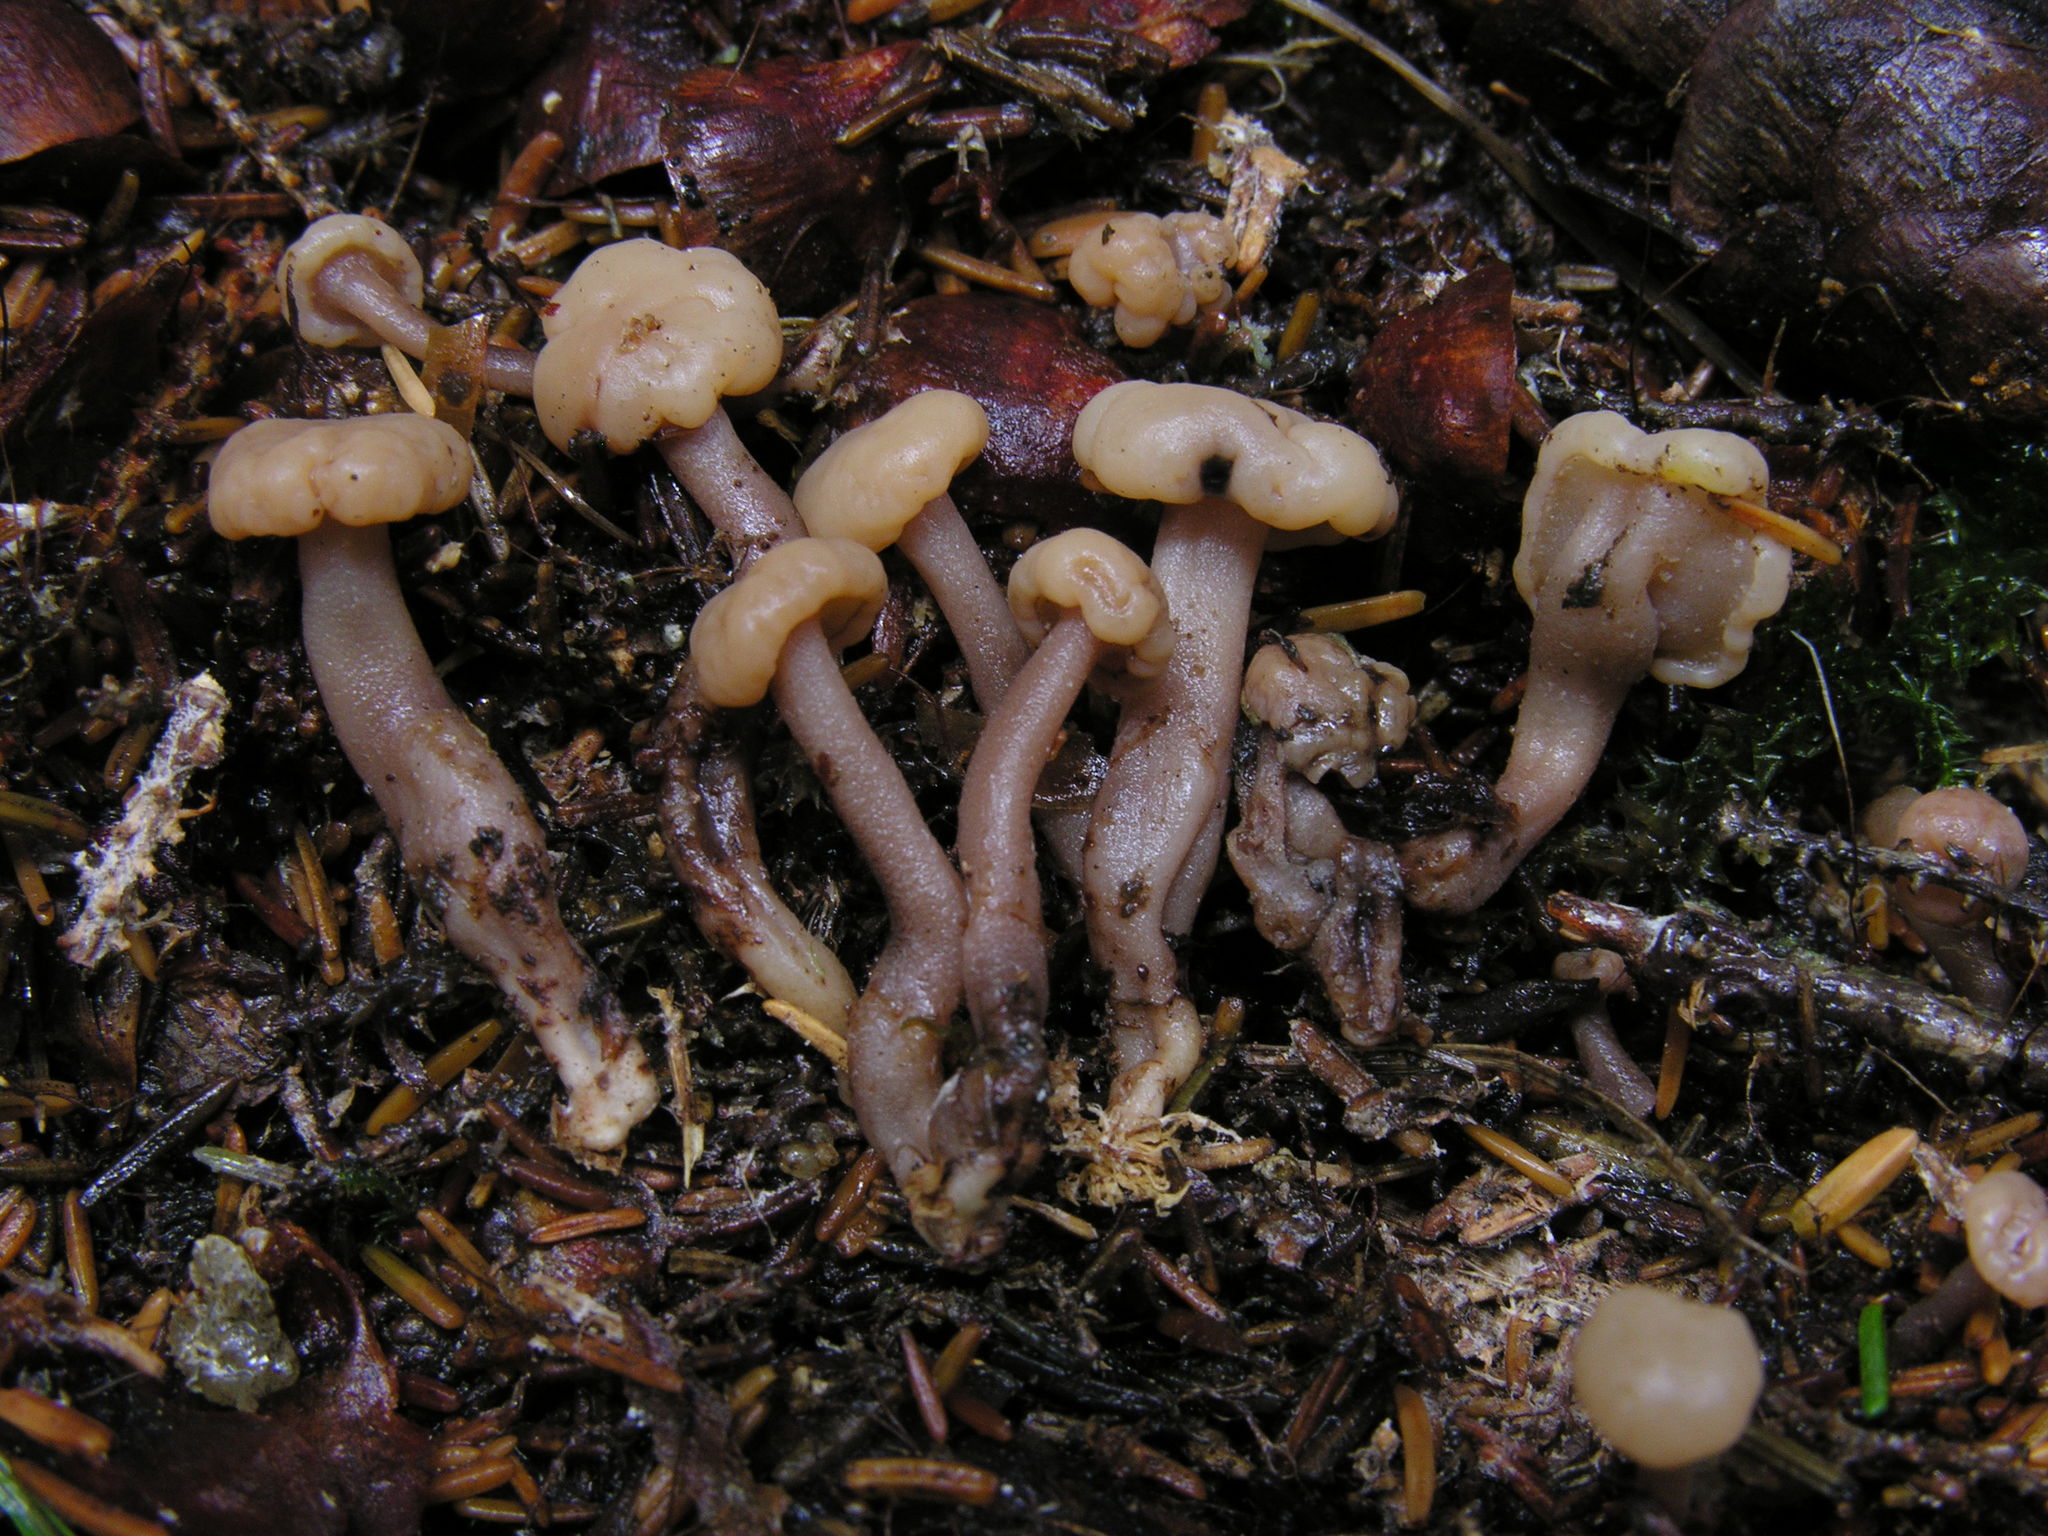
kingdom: Fungi
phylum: Ascomycota
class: Leotiomycetes
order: Rhytismatales
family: Cudoniaceae
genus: Cudonia
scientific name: Cudonia circinans
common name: Redleg jellybaby
